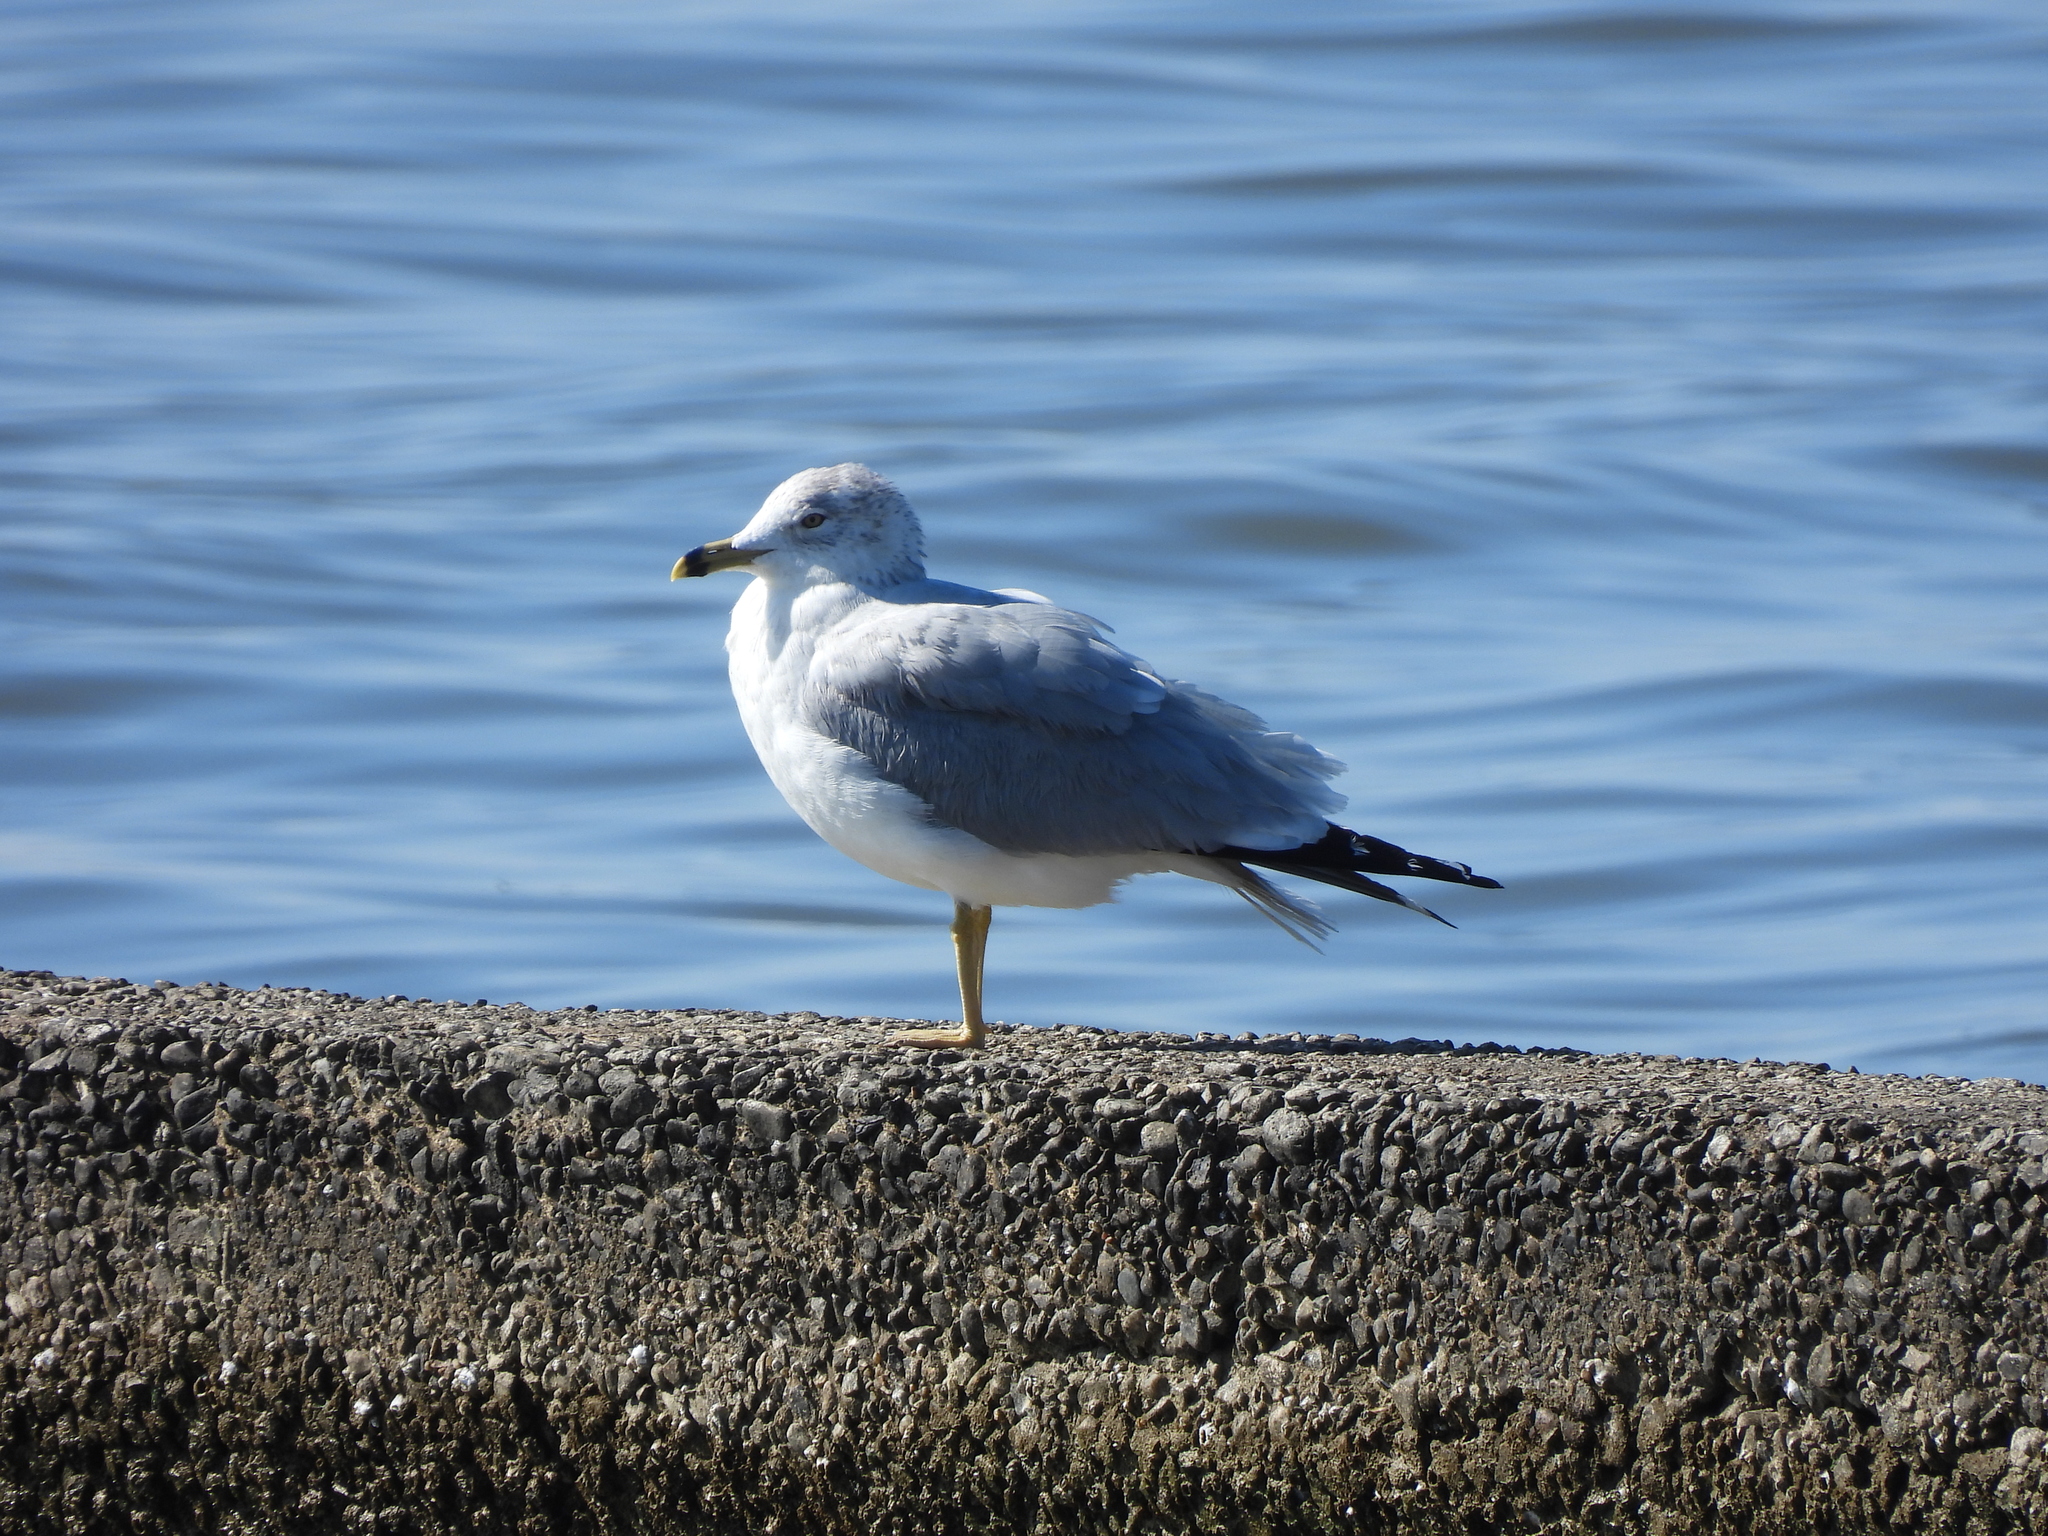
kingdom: Animalia
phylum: Chordata
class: Aves
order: Charadriiformes
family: Laridae
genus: Larus
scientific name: Larus delawarensis
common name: Ring-billed gull
